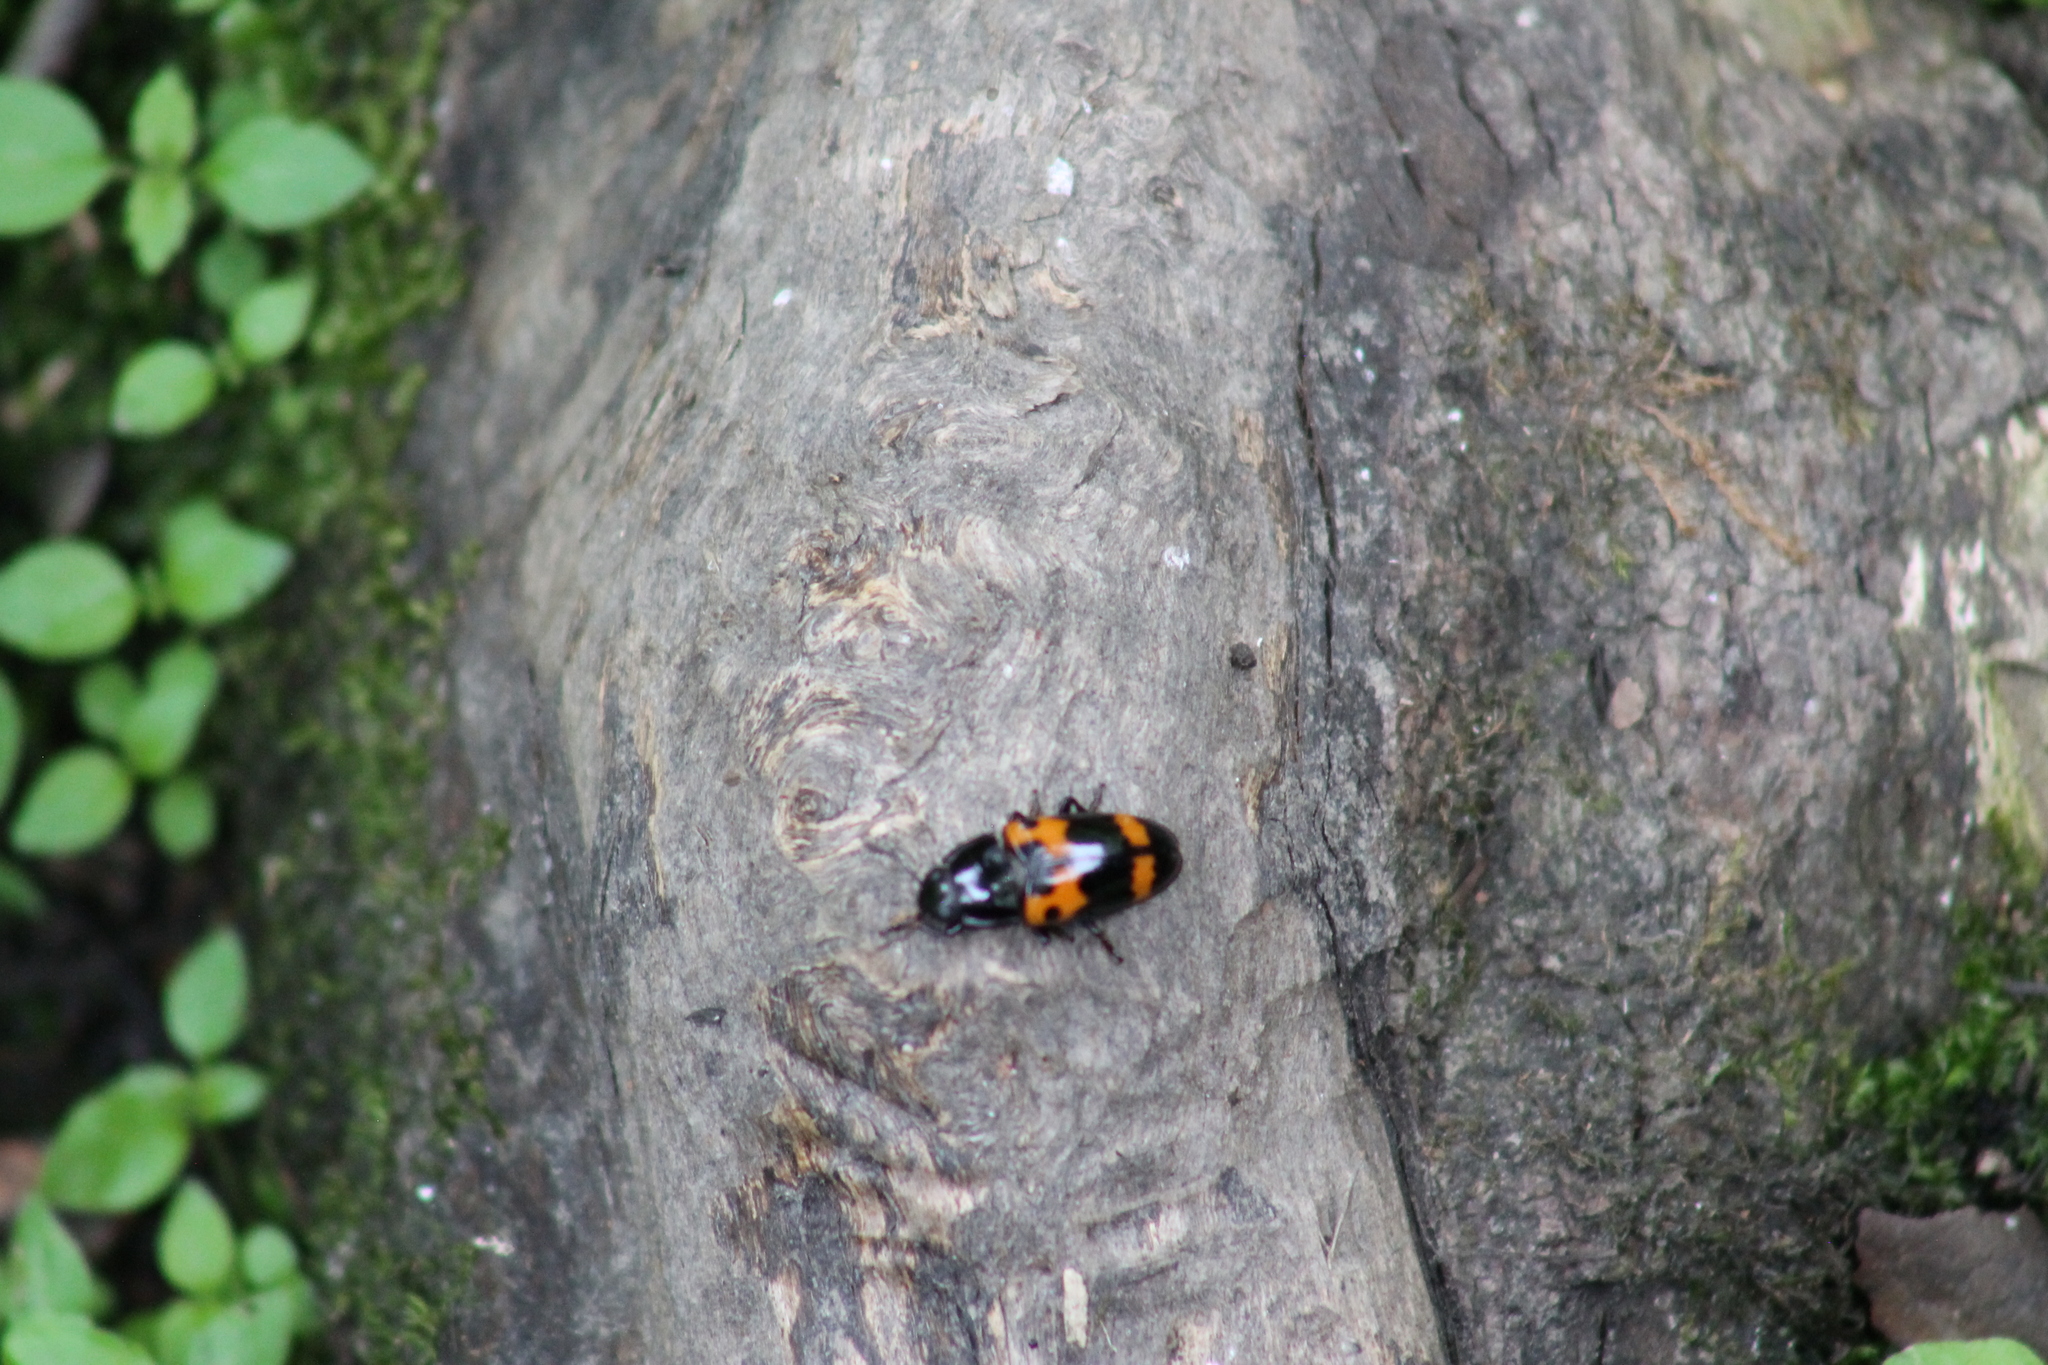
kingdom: Animalia
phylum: Arthropoda
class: Insecta
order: Coleoptera
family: Erotylidae
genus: Megalodacne
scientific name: Megalodacne fasciata
